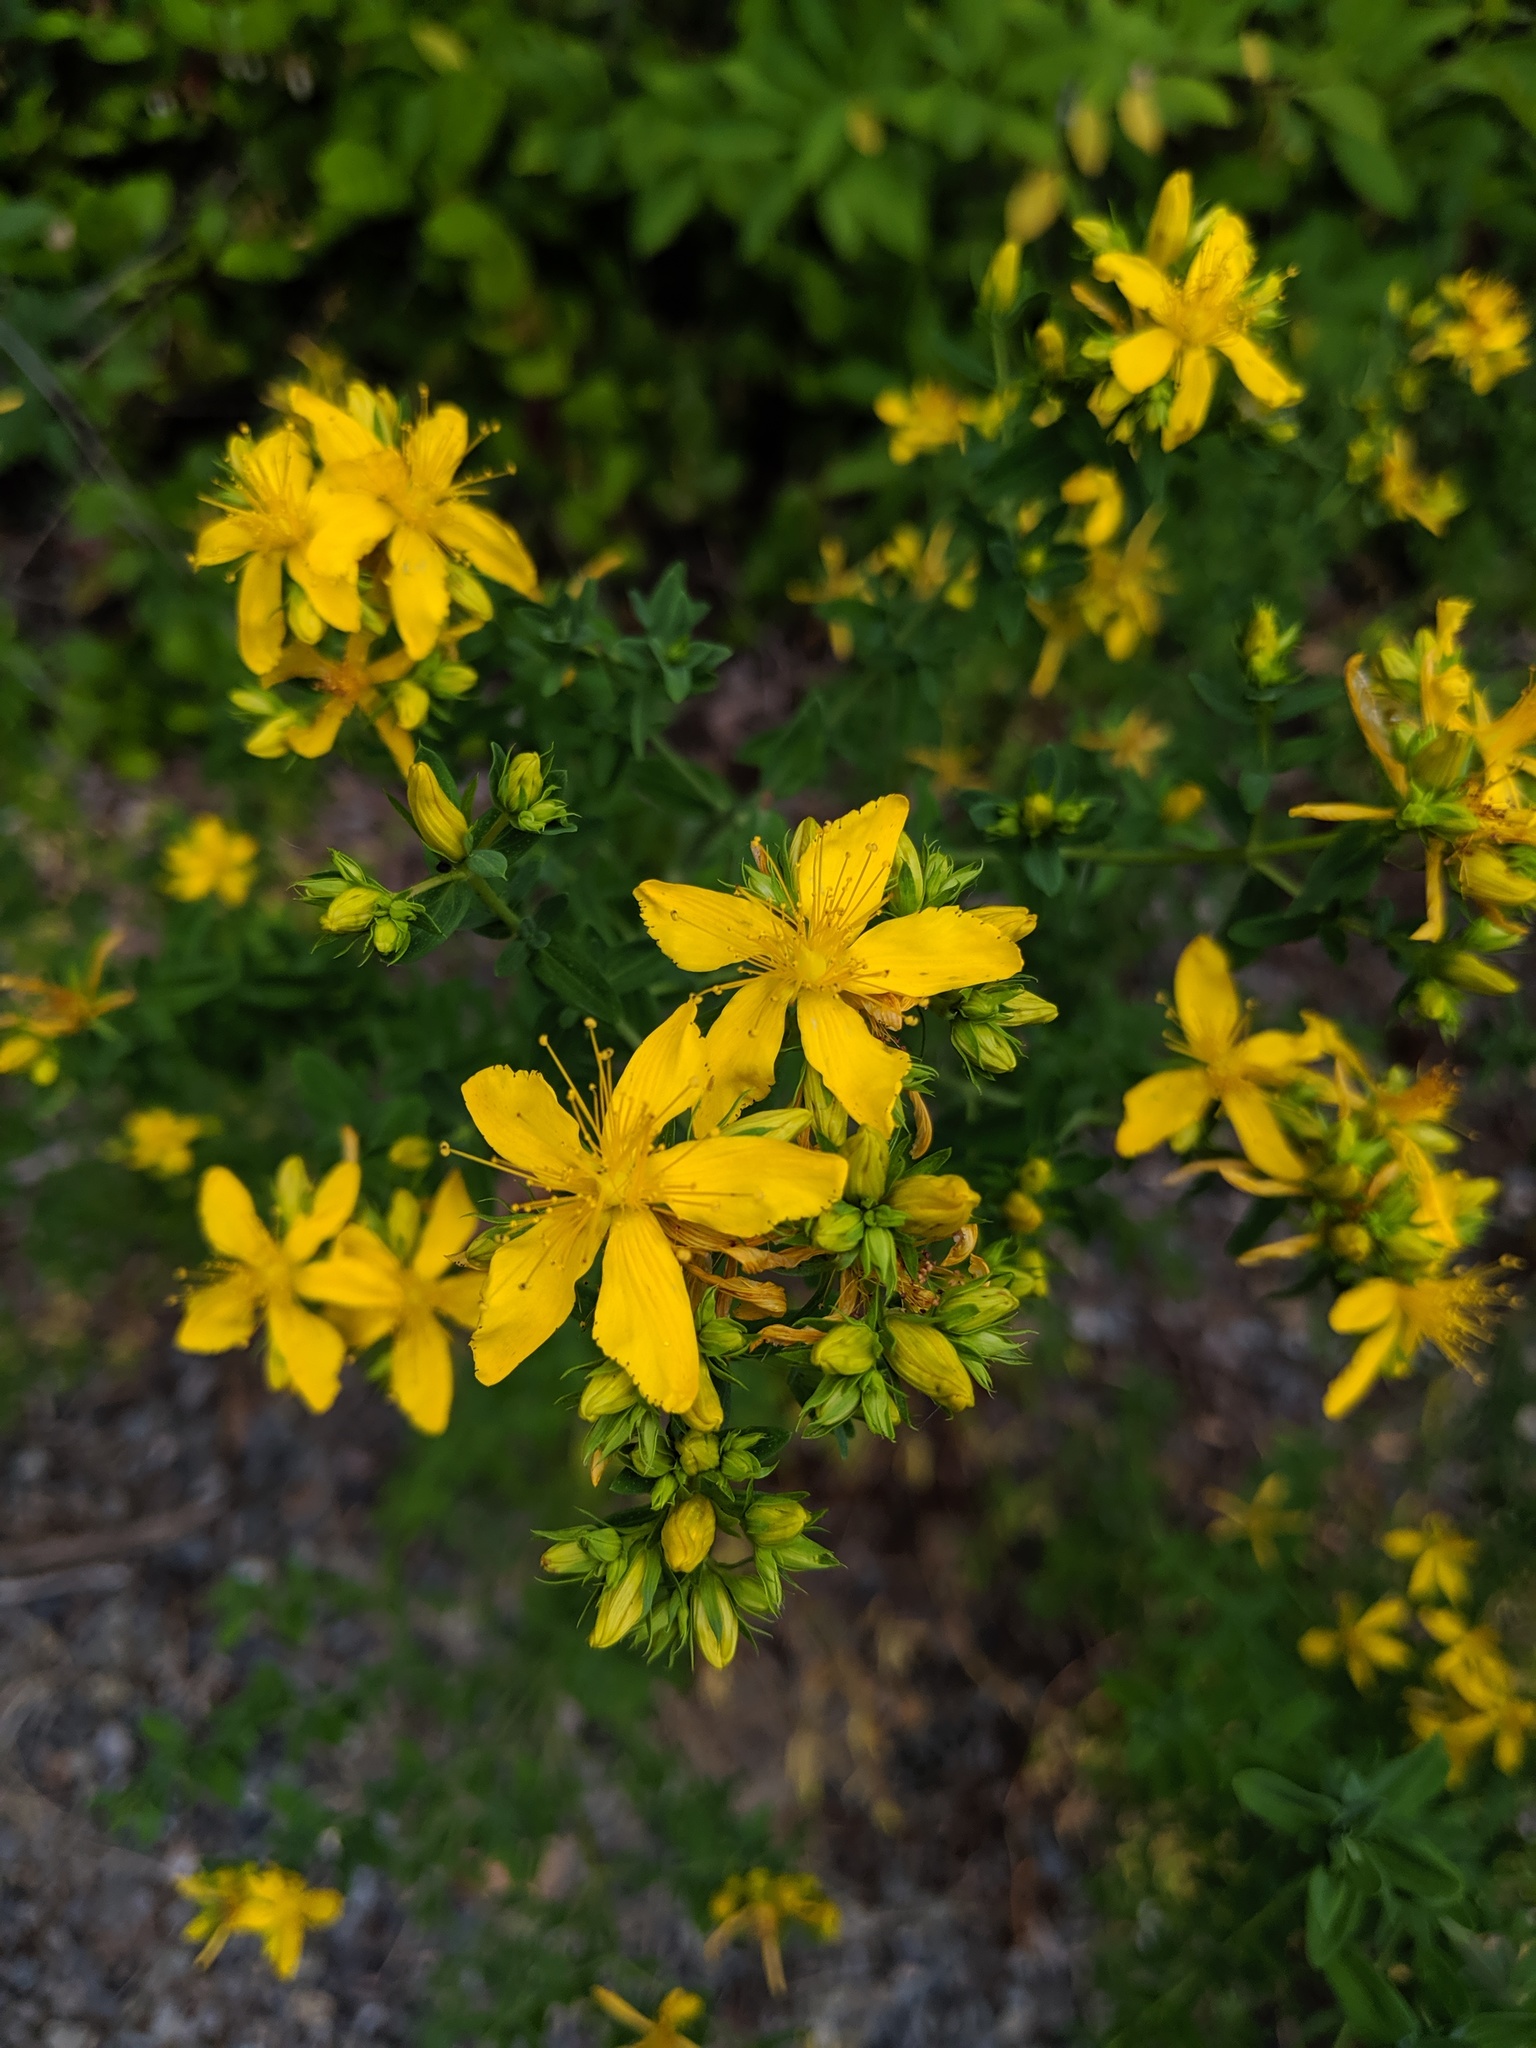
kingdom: Plantae
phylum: Tracheophyta
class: Magnoliopsida
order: Malpighiales
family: Hypericaceae
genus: Hypericum
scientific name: Hypericum perforatum
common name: Common st. johnswort
